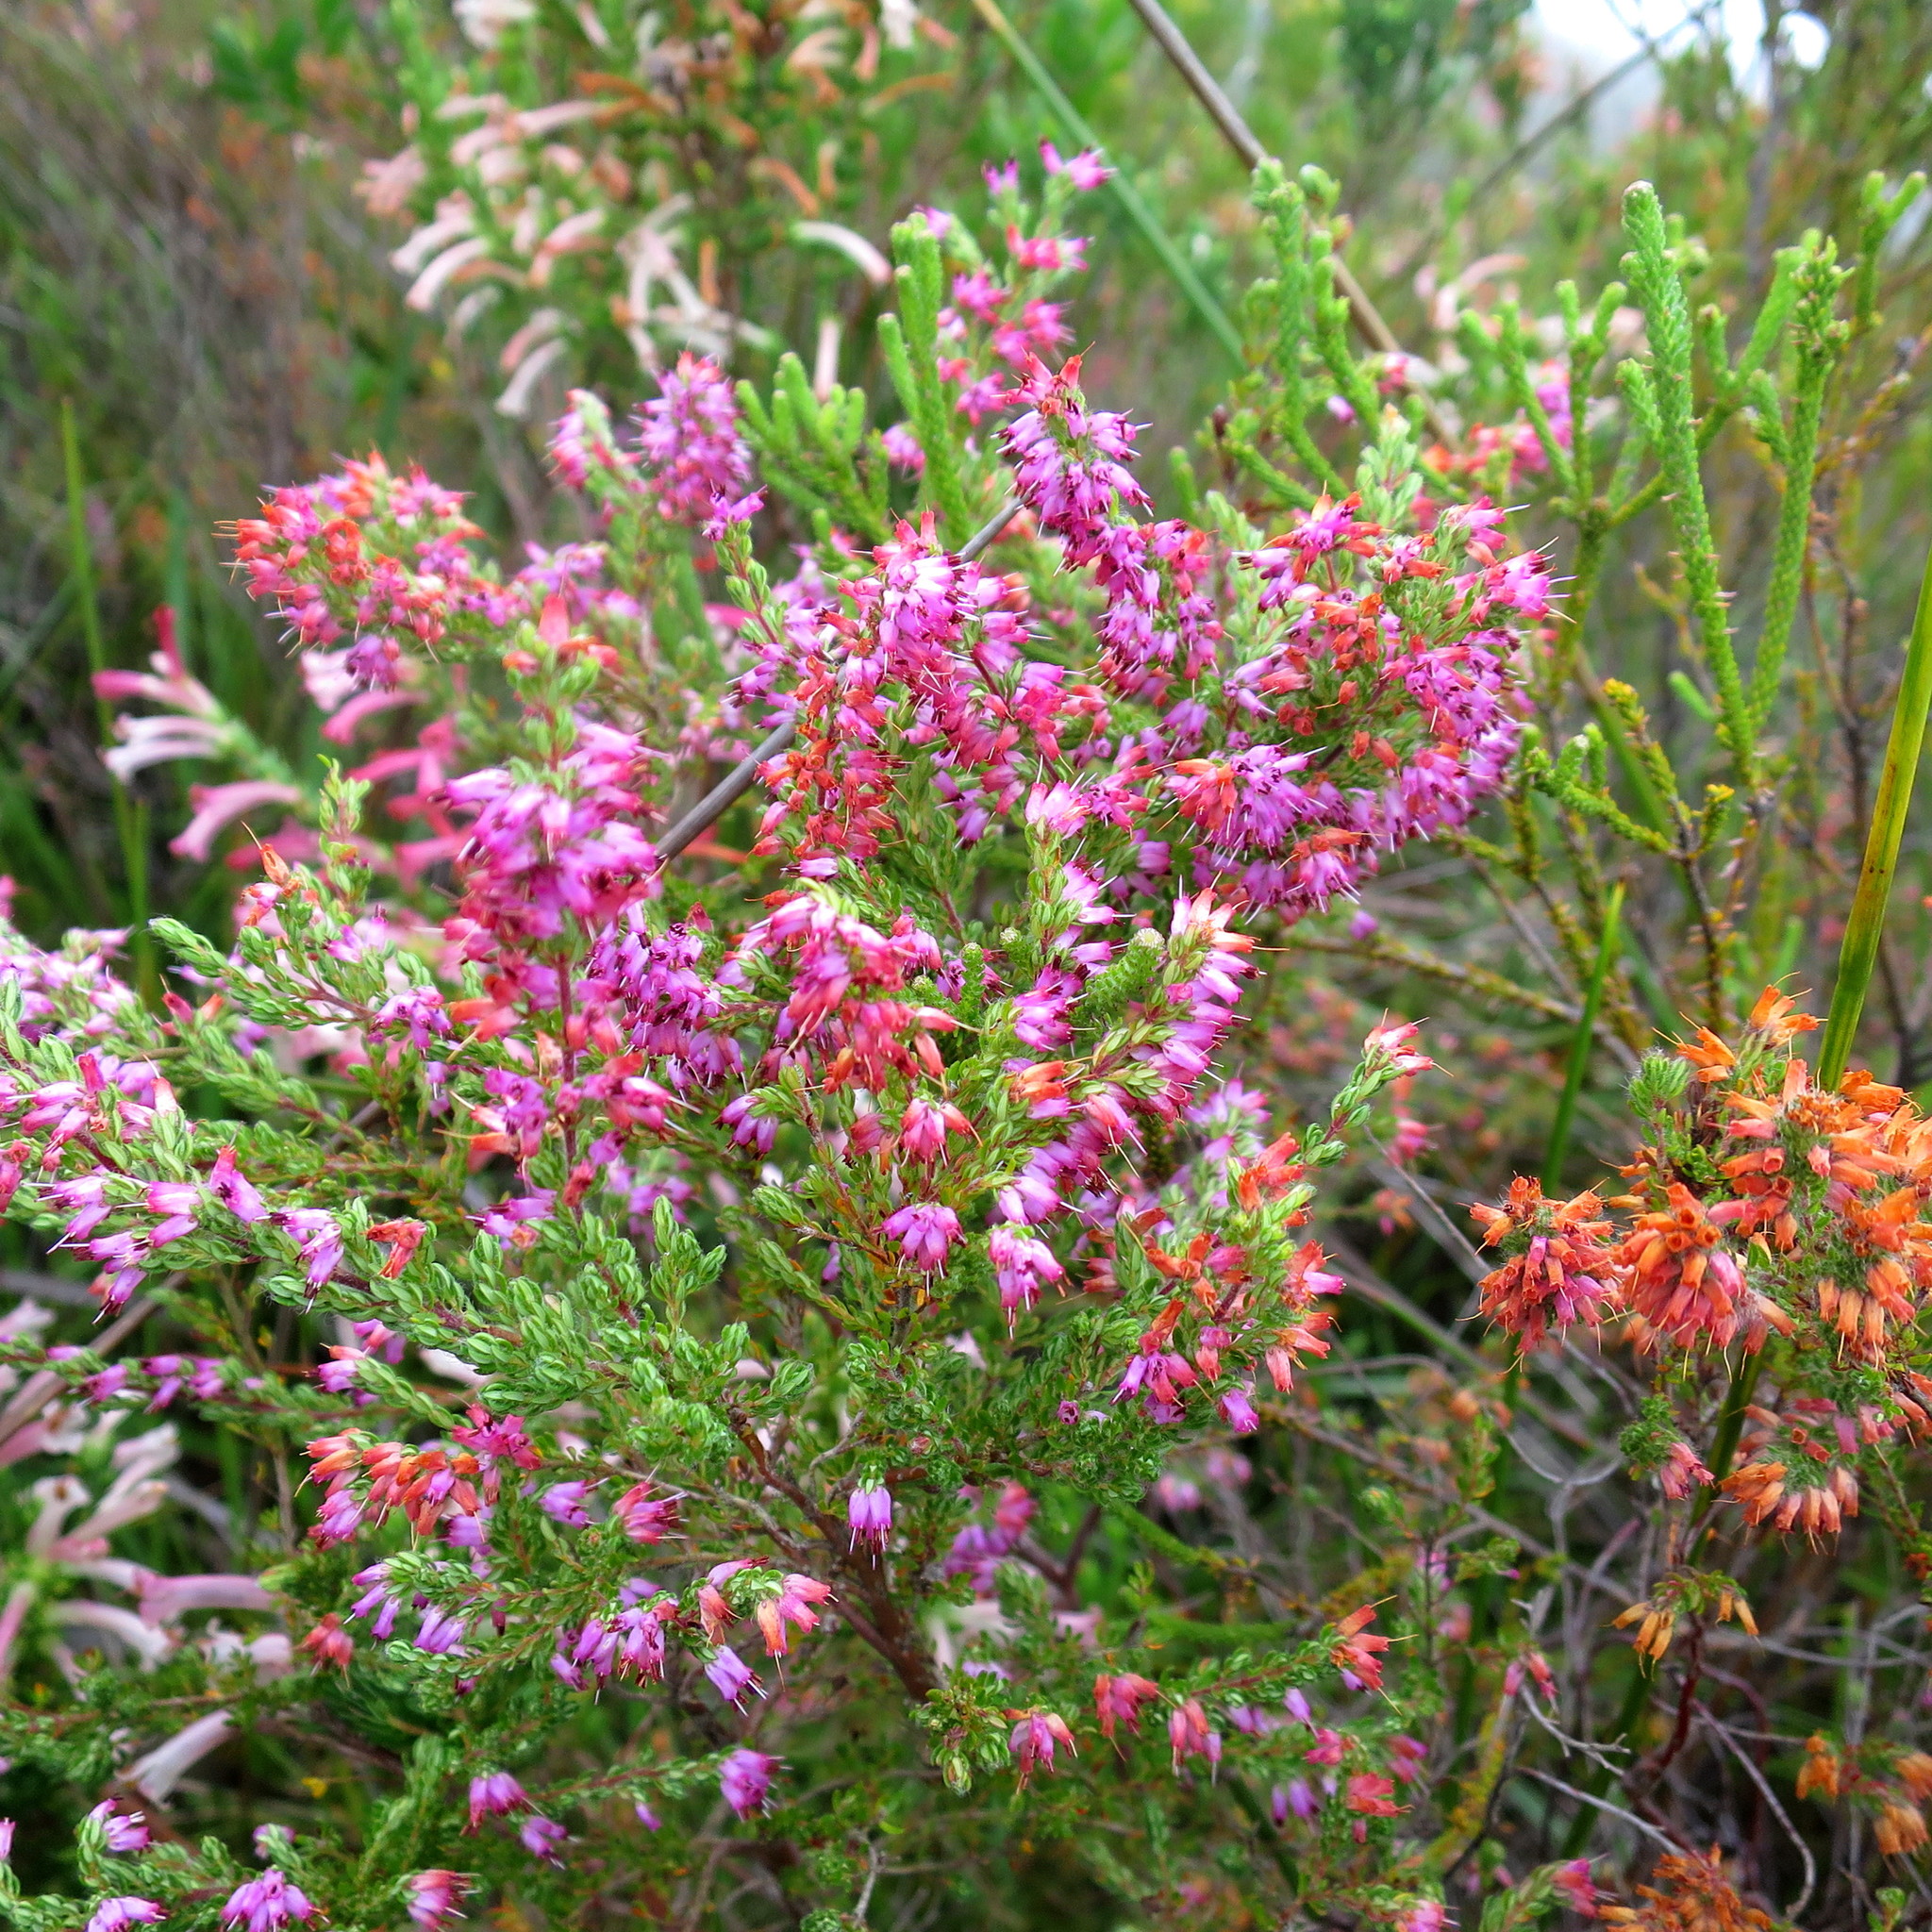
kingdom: Plantae
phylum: Tracheophyta
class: Magnoliopsida
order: Ericales
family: Ericaceae
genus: Erica
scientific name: Erica longimontana
